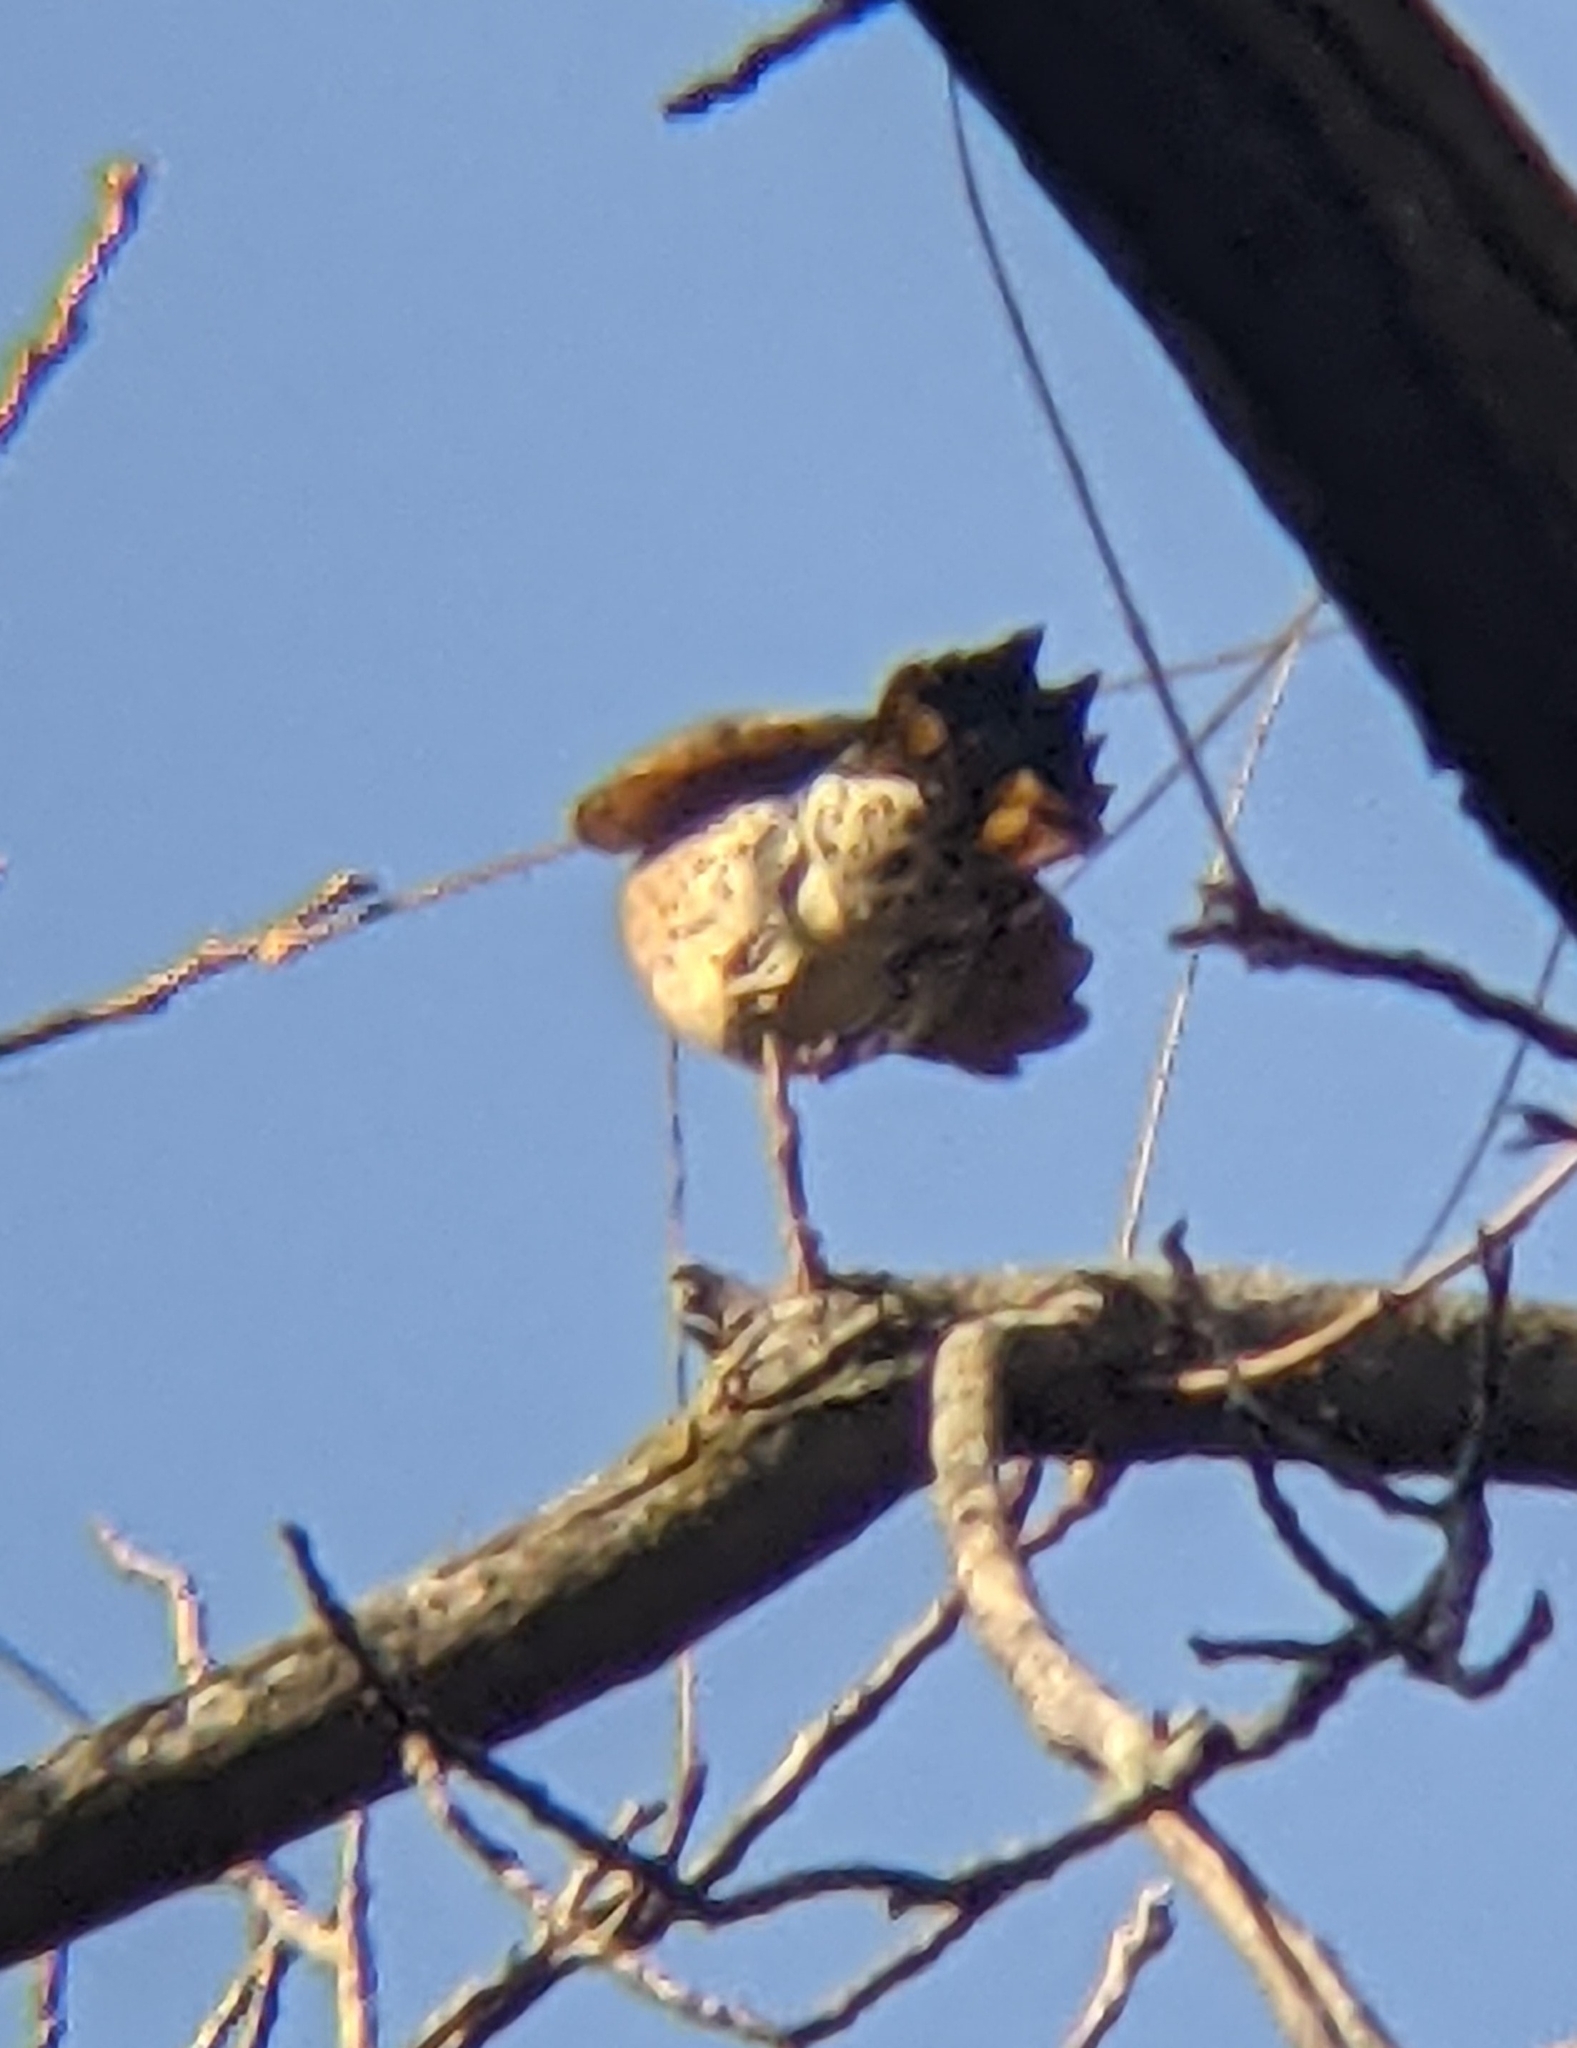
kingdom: Animalia
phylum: Chordata
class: Aves
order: Piciformes
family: Picidae
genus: Colaptes
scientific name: Colaptes auratus
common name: Northern flicker
